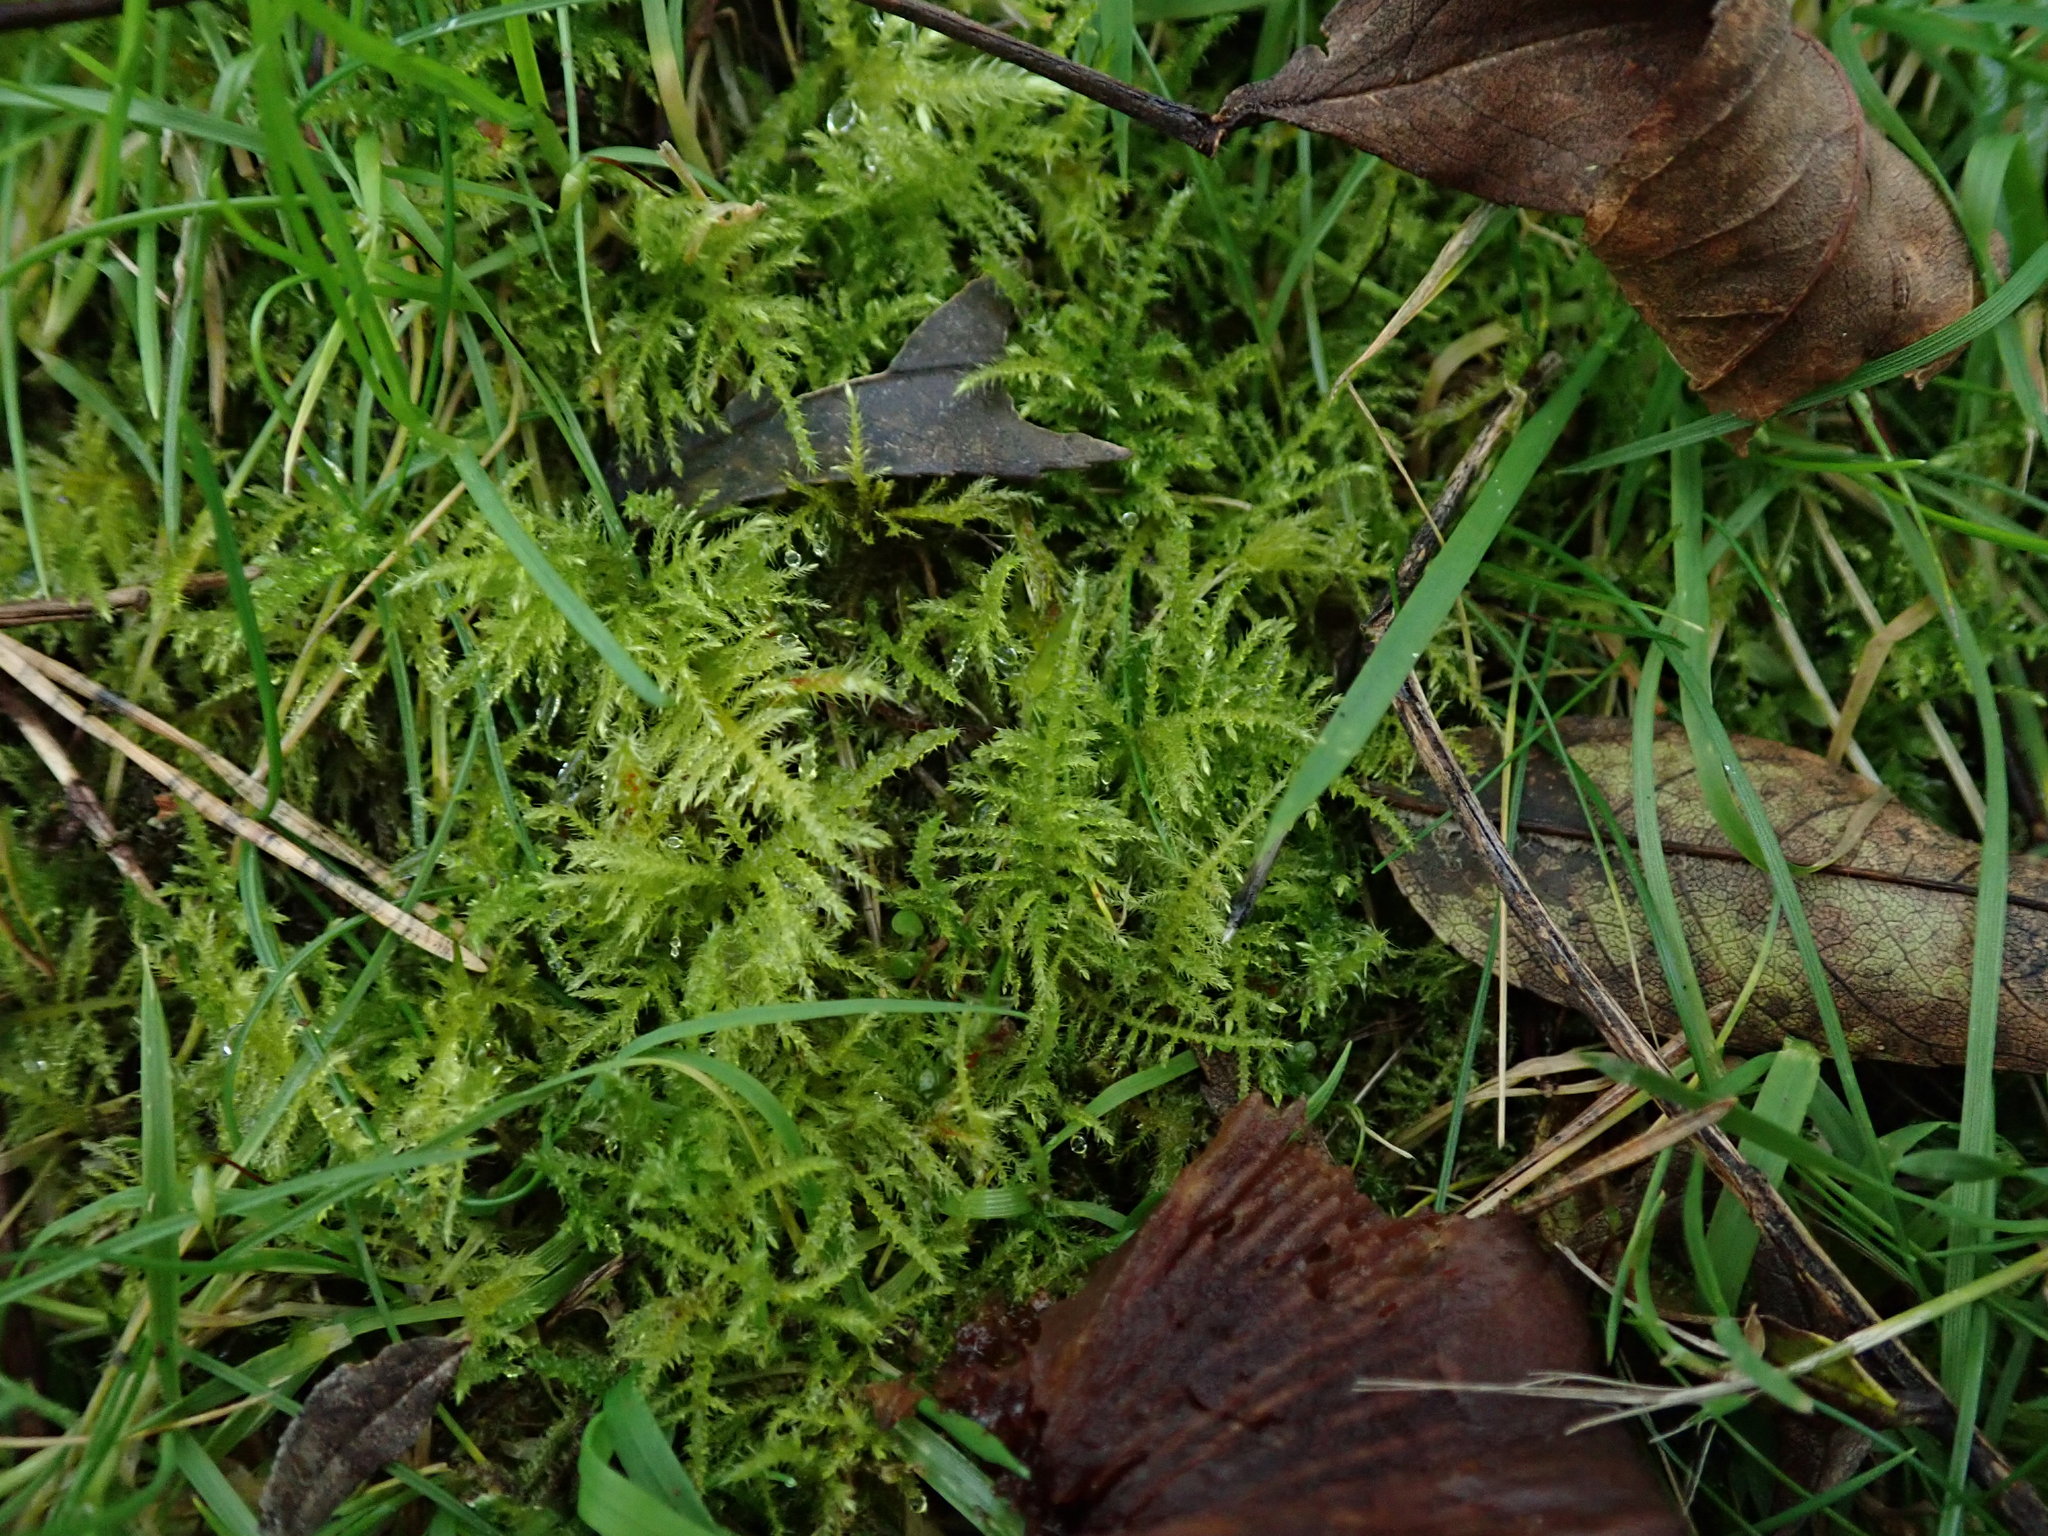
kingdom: Plantae
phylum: Bryophyta
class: Bryopsida
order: Hypnales
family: Brachytheciaceae
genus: Kindbergia
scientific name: Kindbergia praelonga
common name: Slender beaked moss
